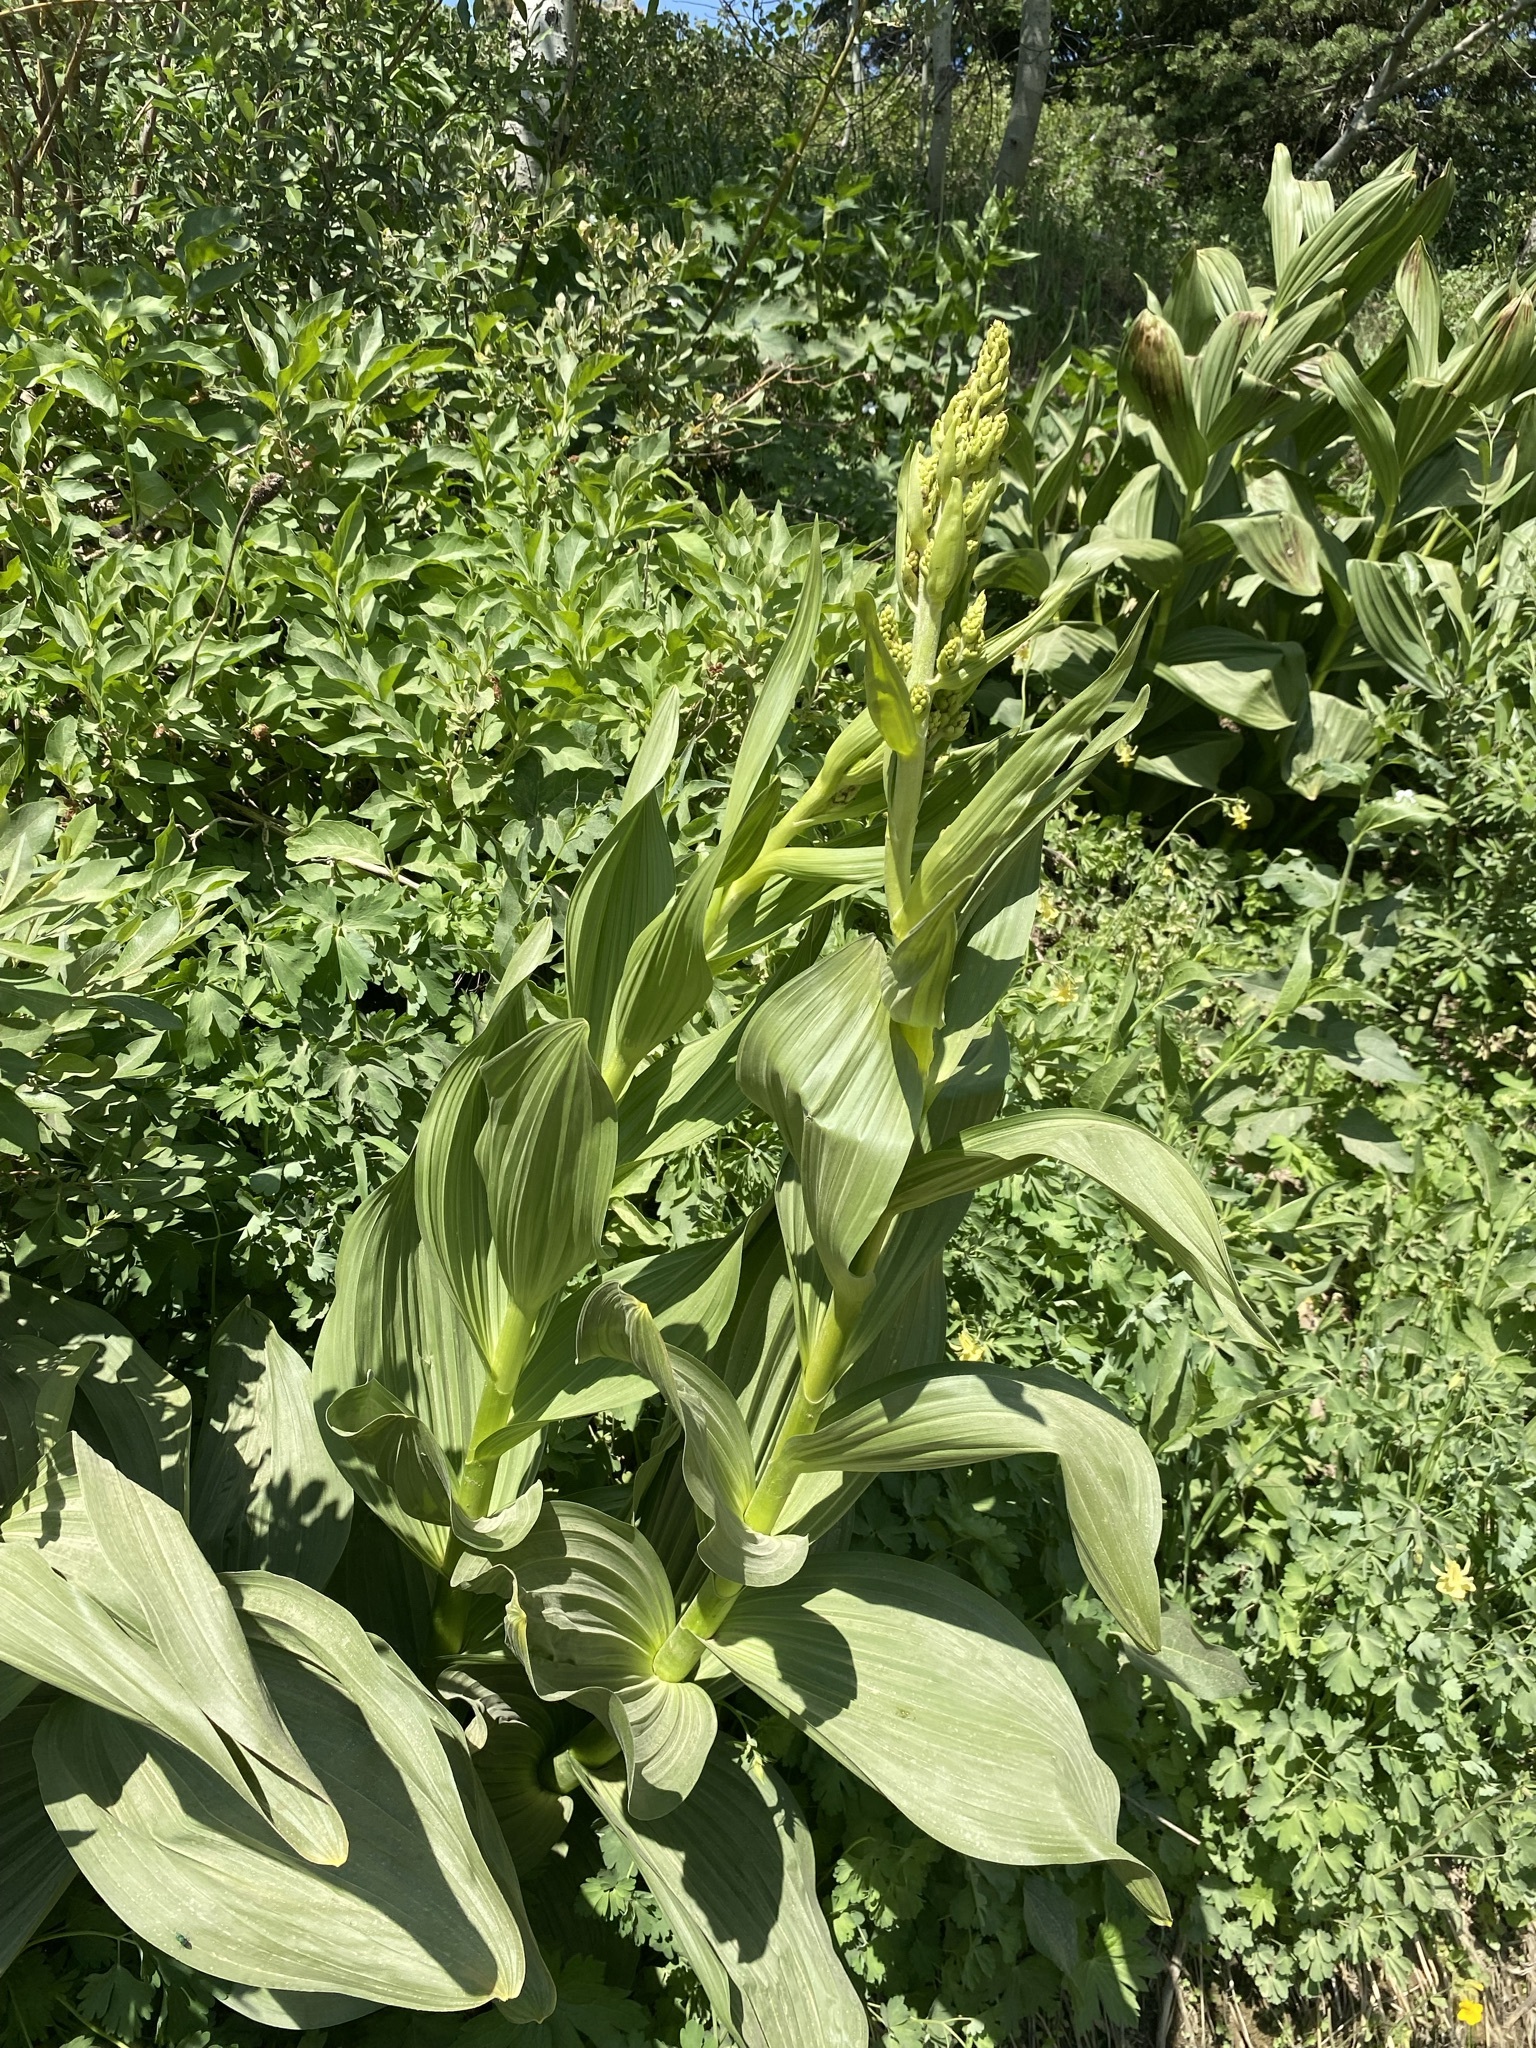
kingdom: Plantae
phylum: Tracheophyta
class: Liliopsida
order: Liliales
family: Melanthiaceae
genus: Veratrum
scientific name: Veratrum californicum
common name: California veratrum
